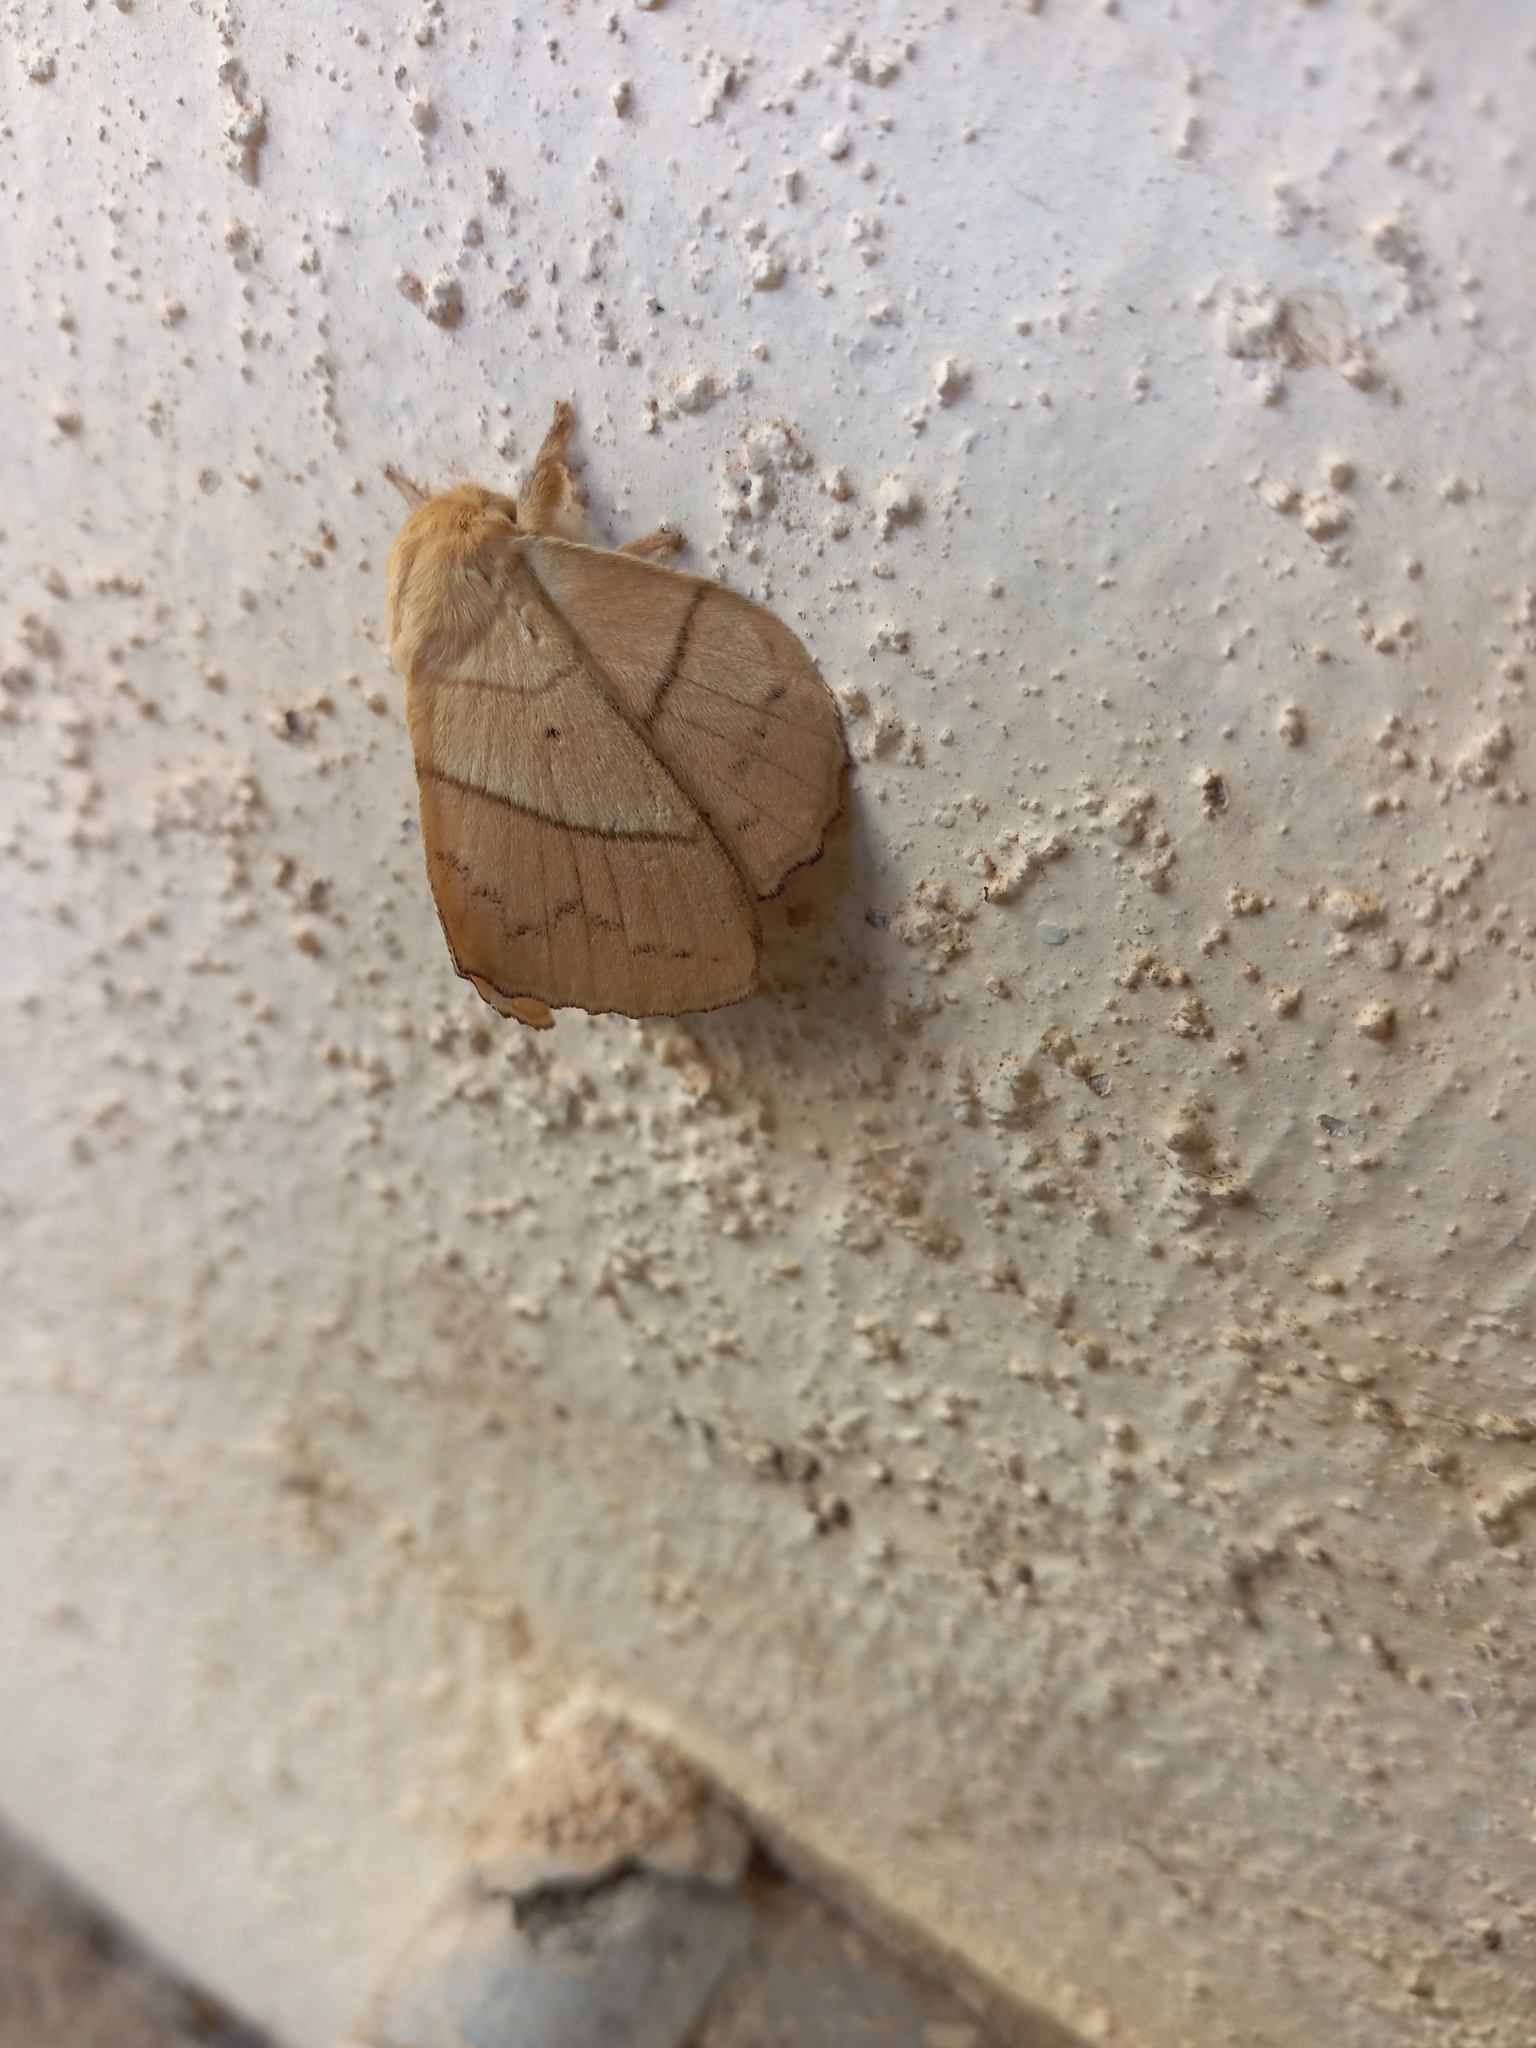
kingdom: Animalia
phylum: Arthropoda
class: Insecta
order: Lepidoptera
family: Lasiocampidae
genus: Trabala
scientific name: Trabala vishnou
